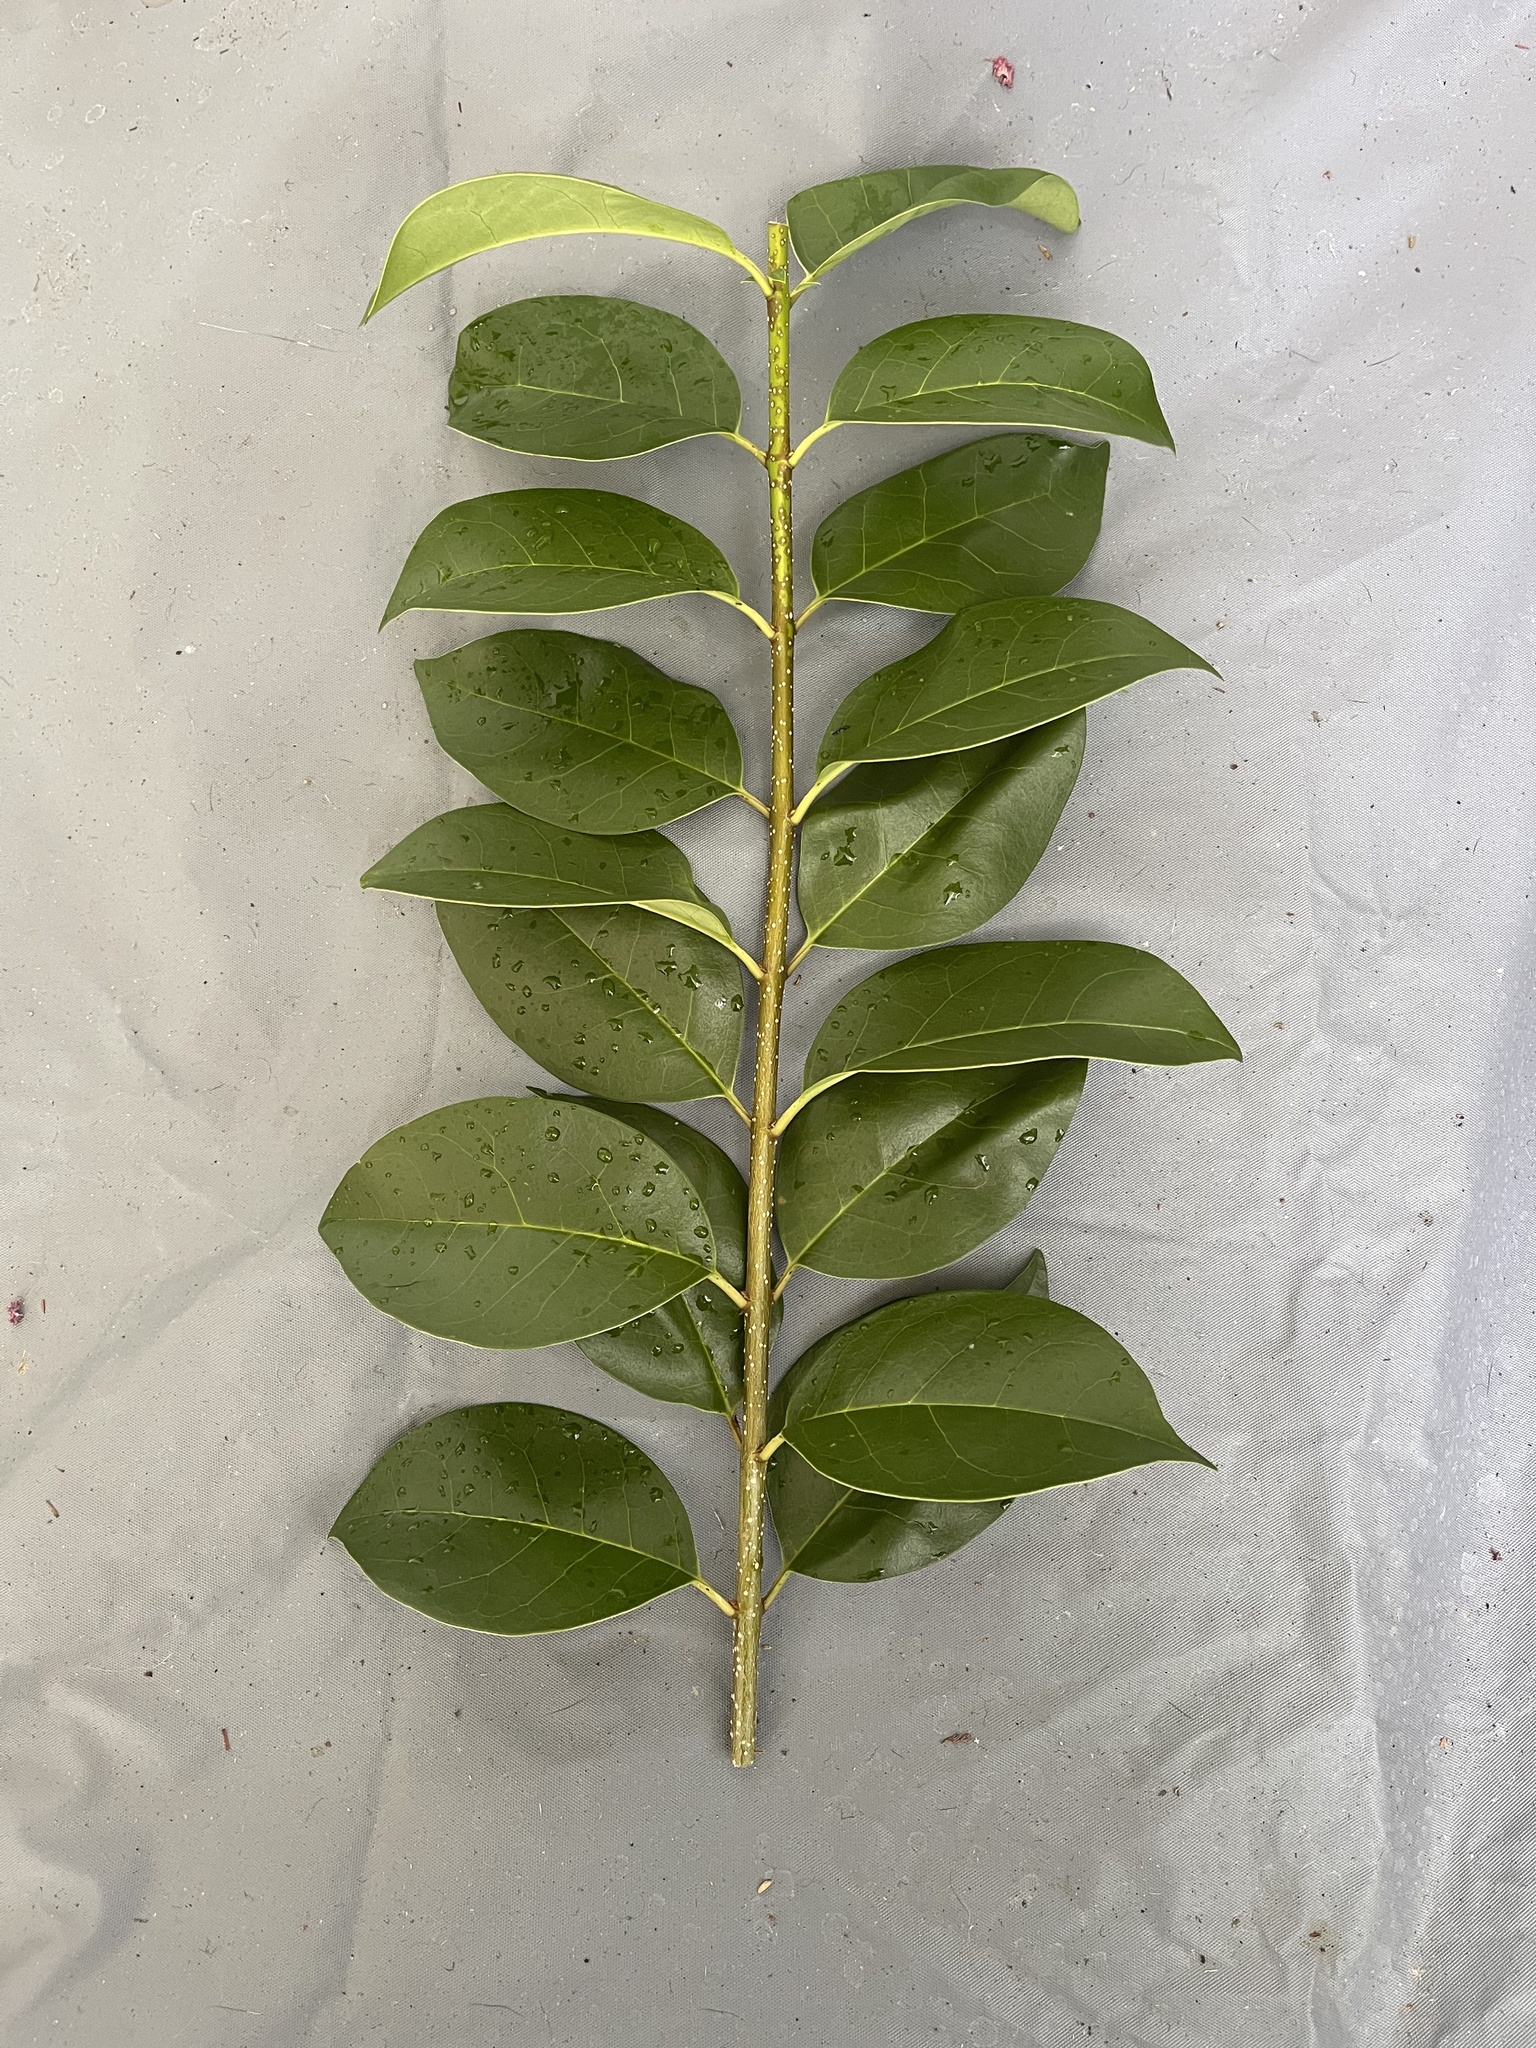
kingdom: Plantae
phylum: Tracheophyta
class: Magnoliopsida
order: Lamiales
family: Oleaceae
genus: Ligustrum
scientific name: Ligustrum lucidum
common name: Glossy privet
